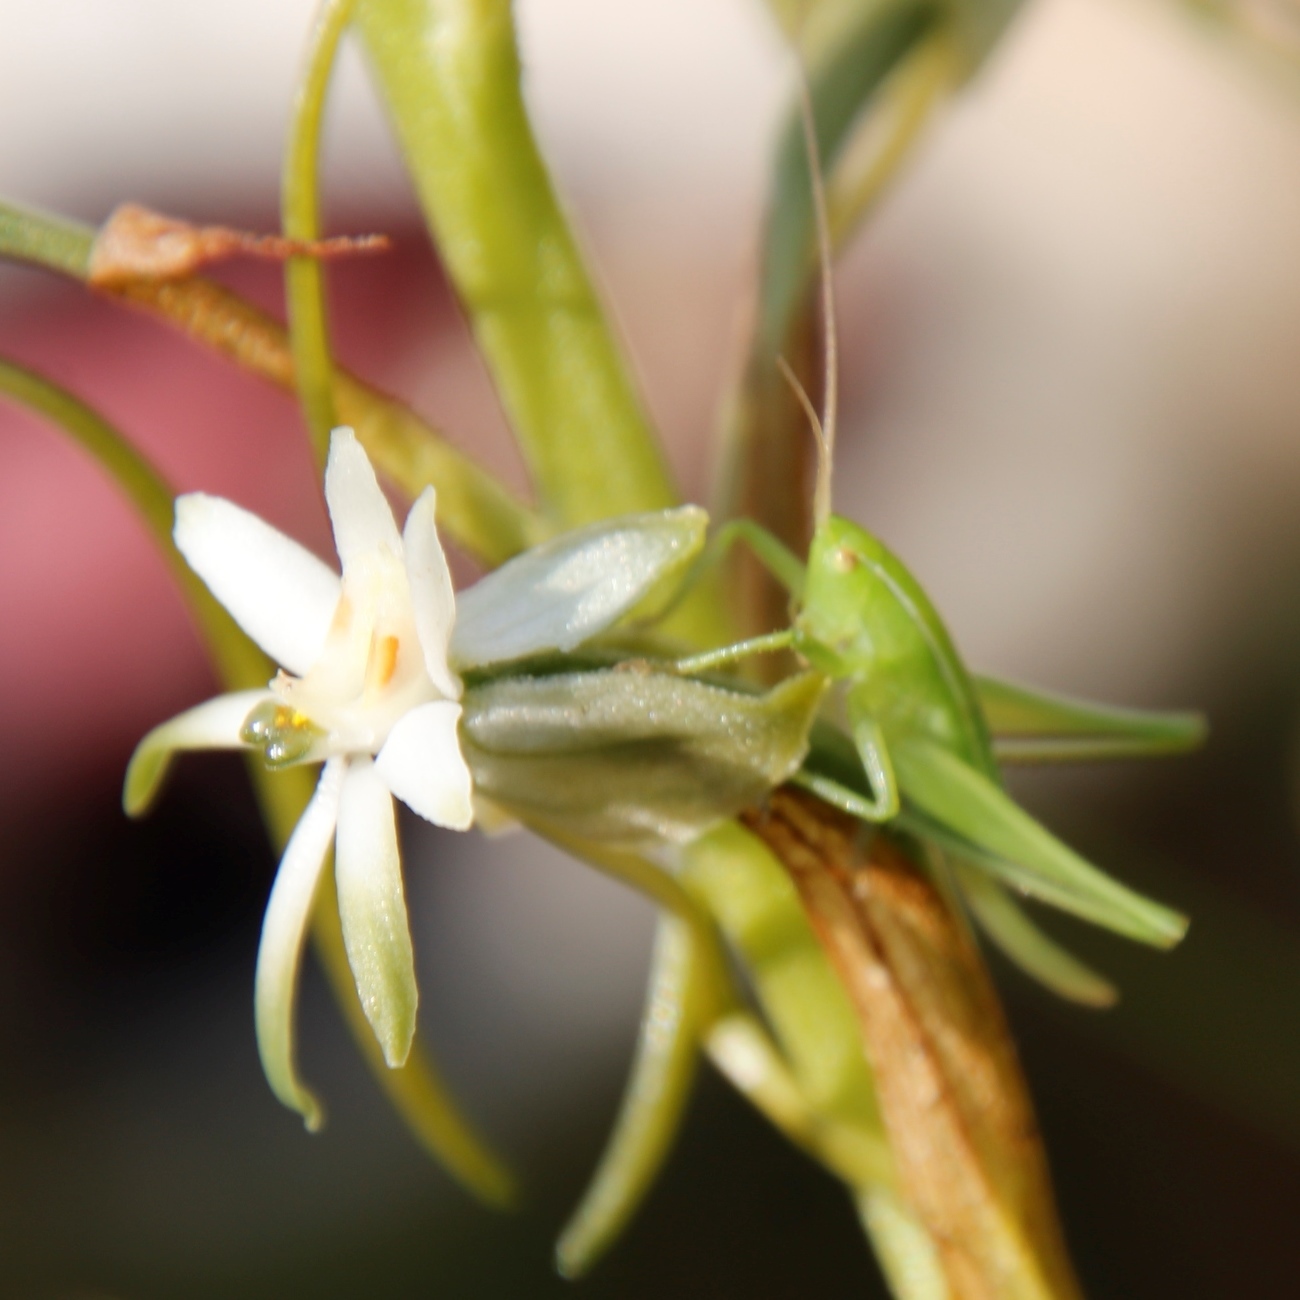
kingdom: Plantae
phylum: Tracheophyta
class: Liliopsida
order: Asparagales
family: Orchidaceae
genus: Habenaria
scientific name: Habenaria falcicornis
